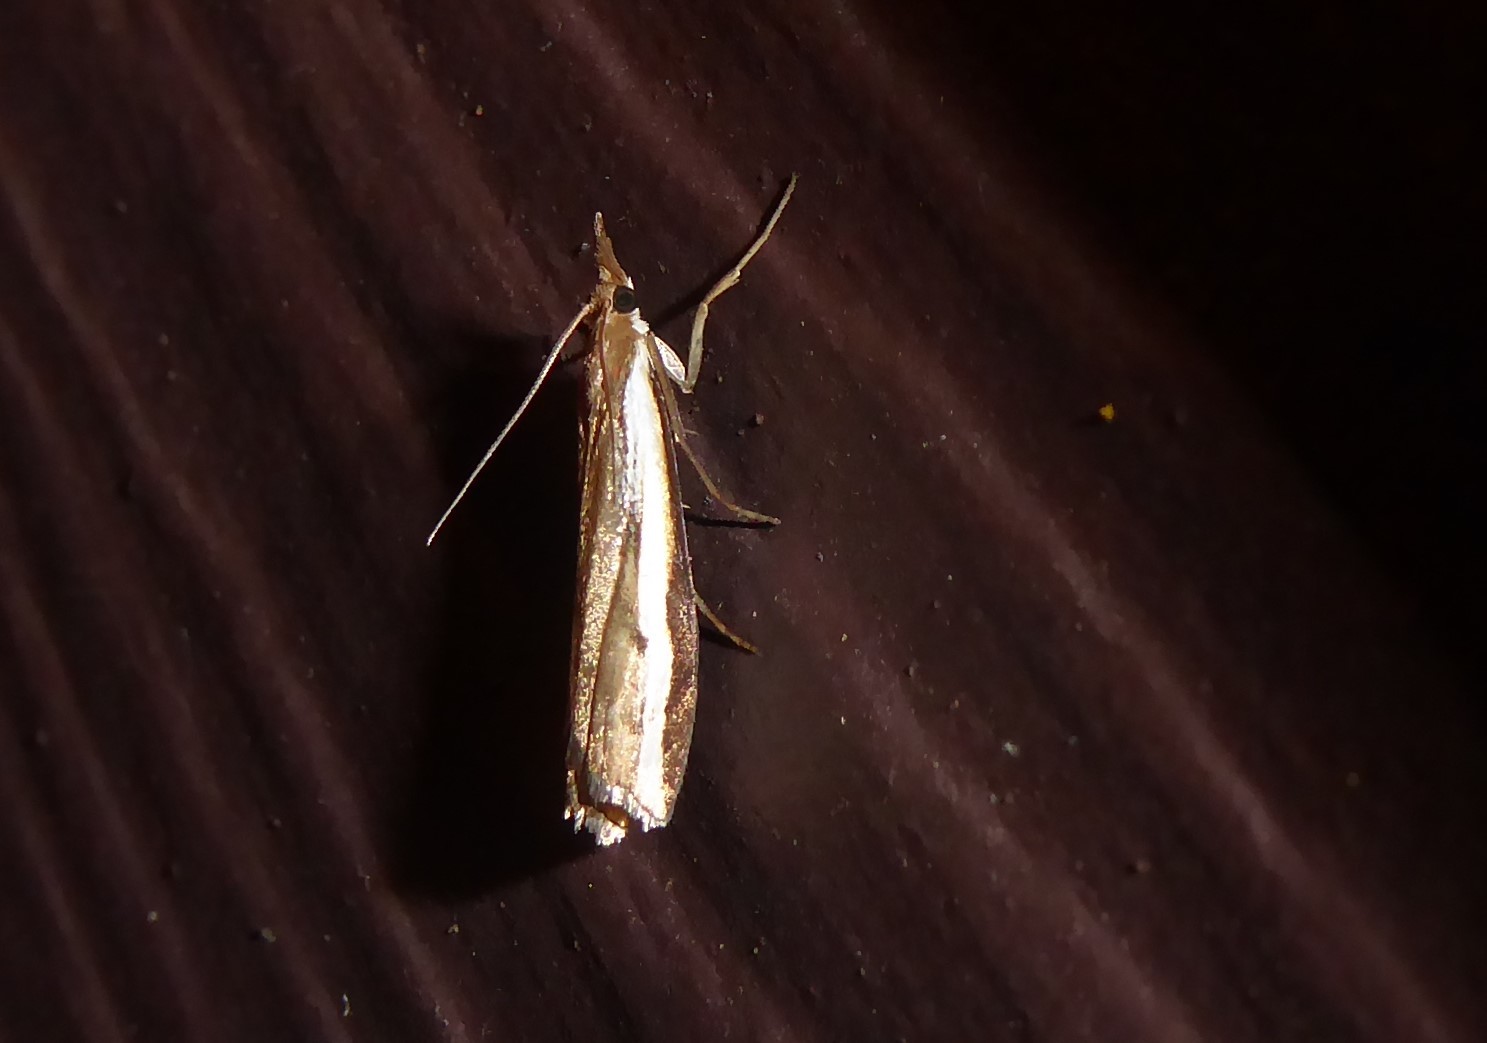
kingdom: Animalia
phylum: Arthropoda
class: Insecta
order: Lepidoptera
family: Crambidae
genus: Orocrambus
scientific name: Orocrambus flexuosellus
